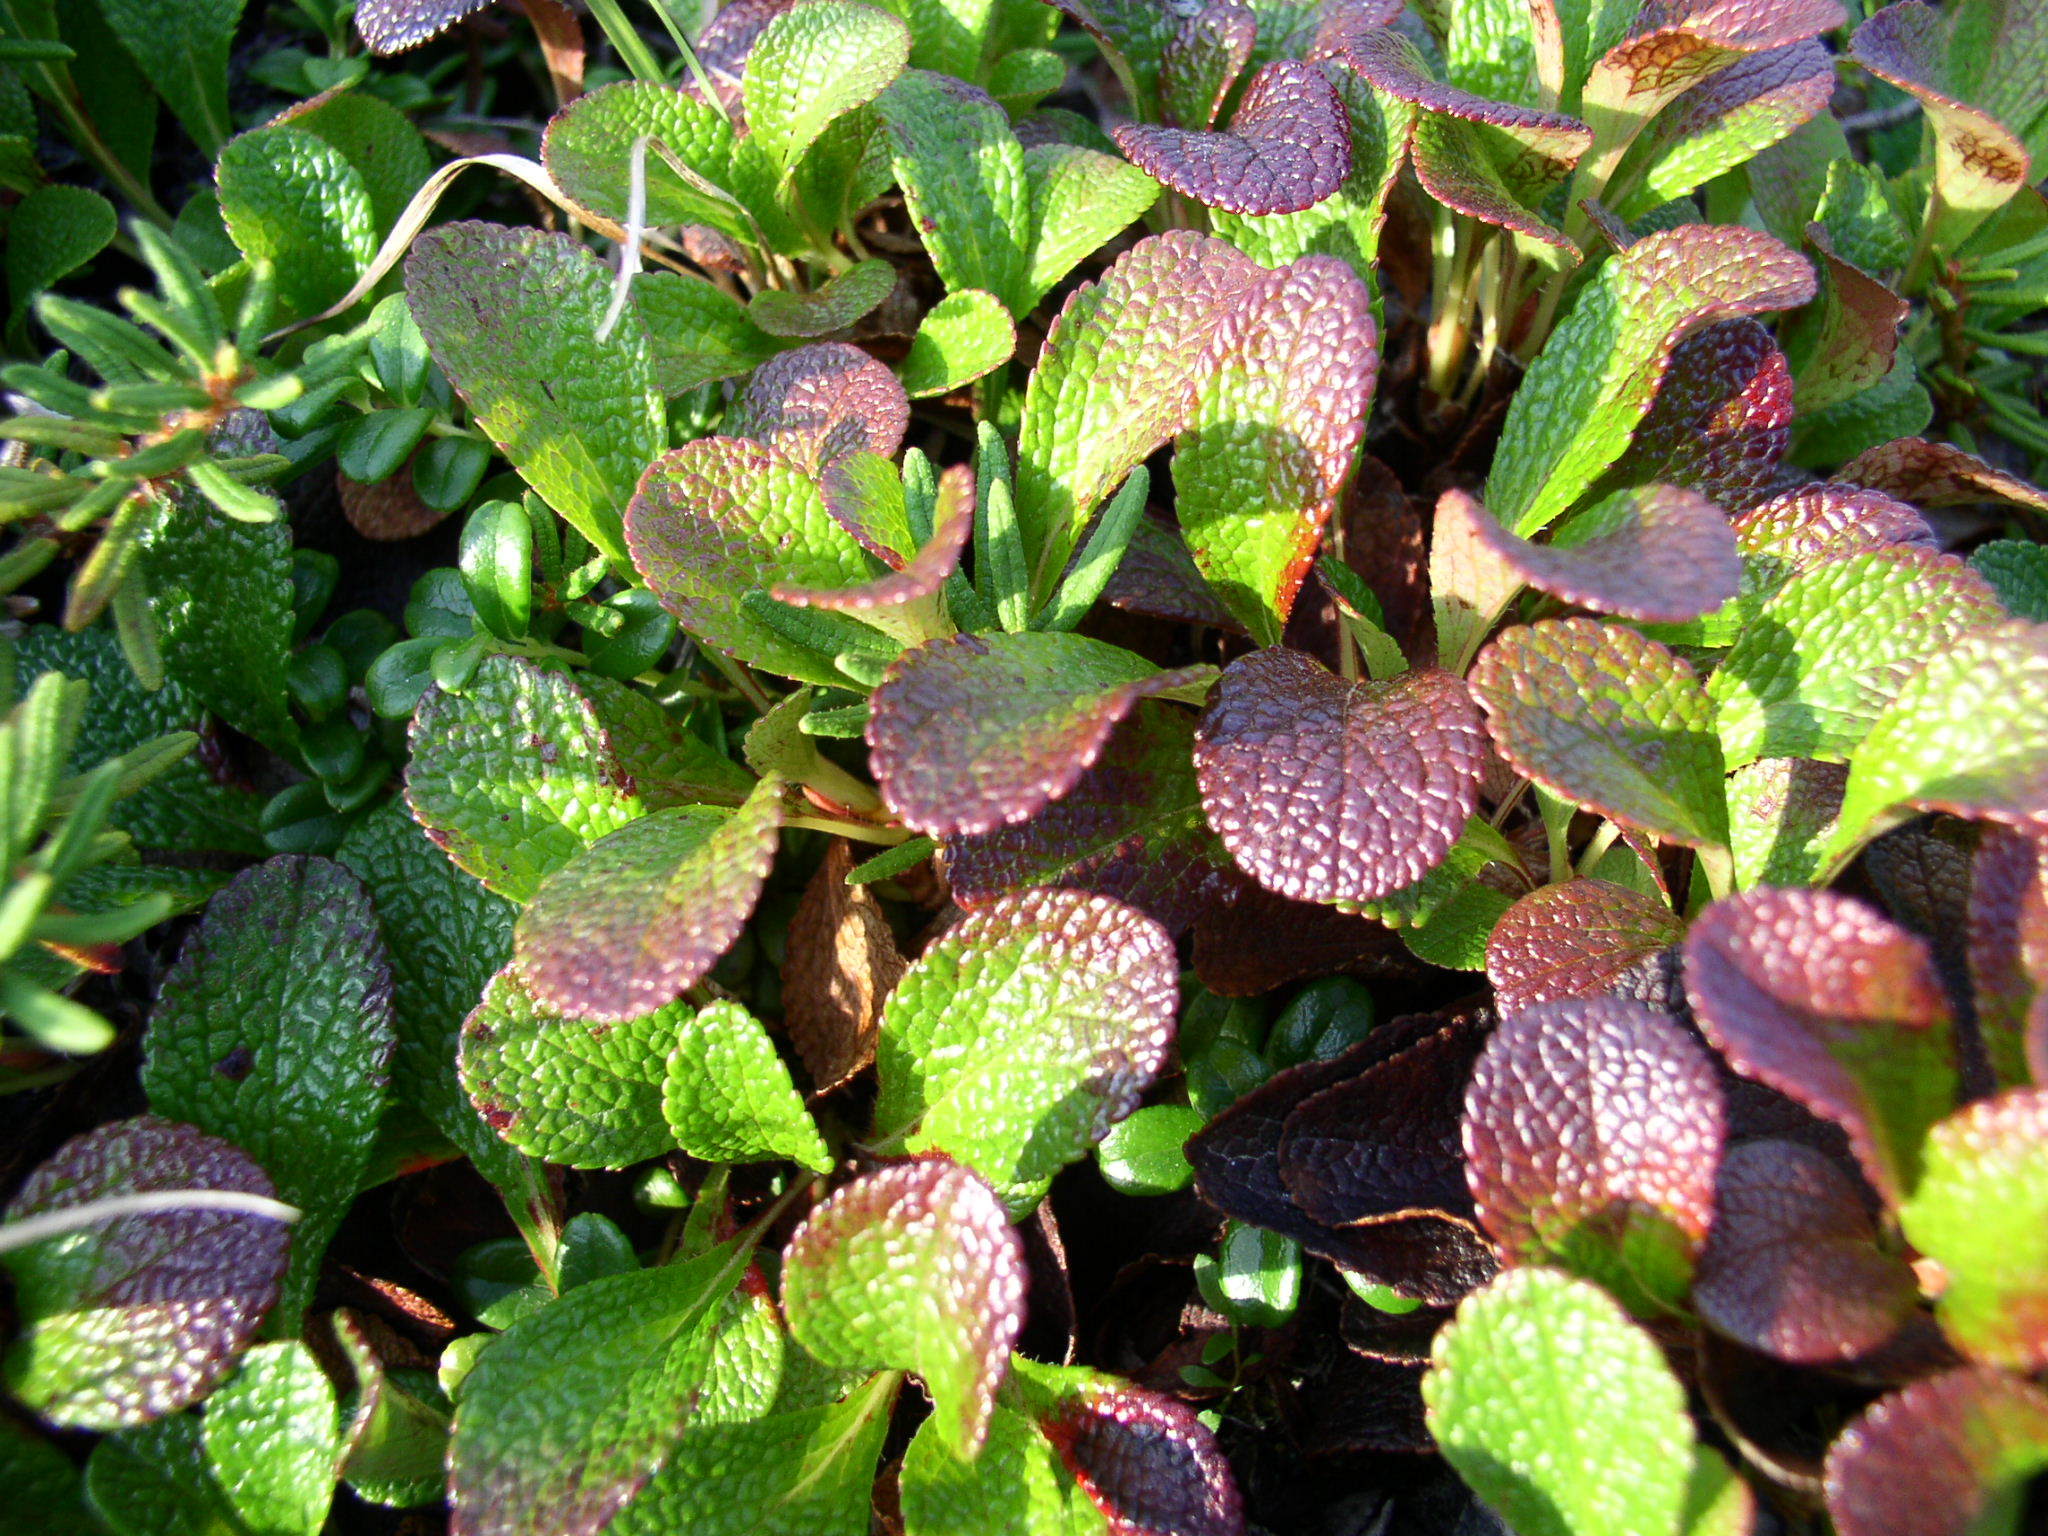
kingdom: Plantae
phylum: Tracheophyta
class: Magnoliopsida
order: Ericales
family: Ericaceae
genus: Arctostaphylos
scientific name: Arctostaphylos rubra
